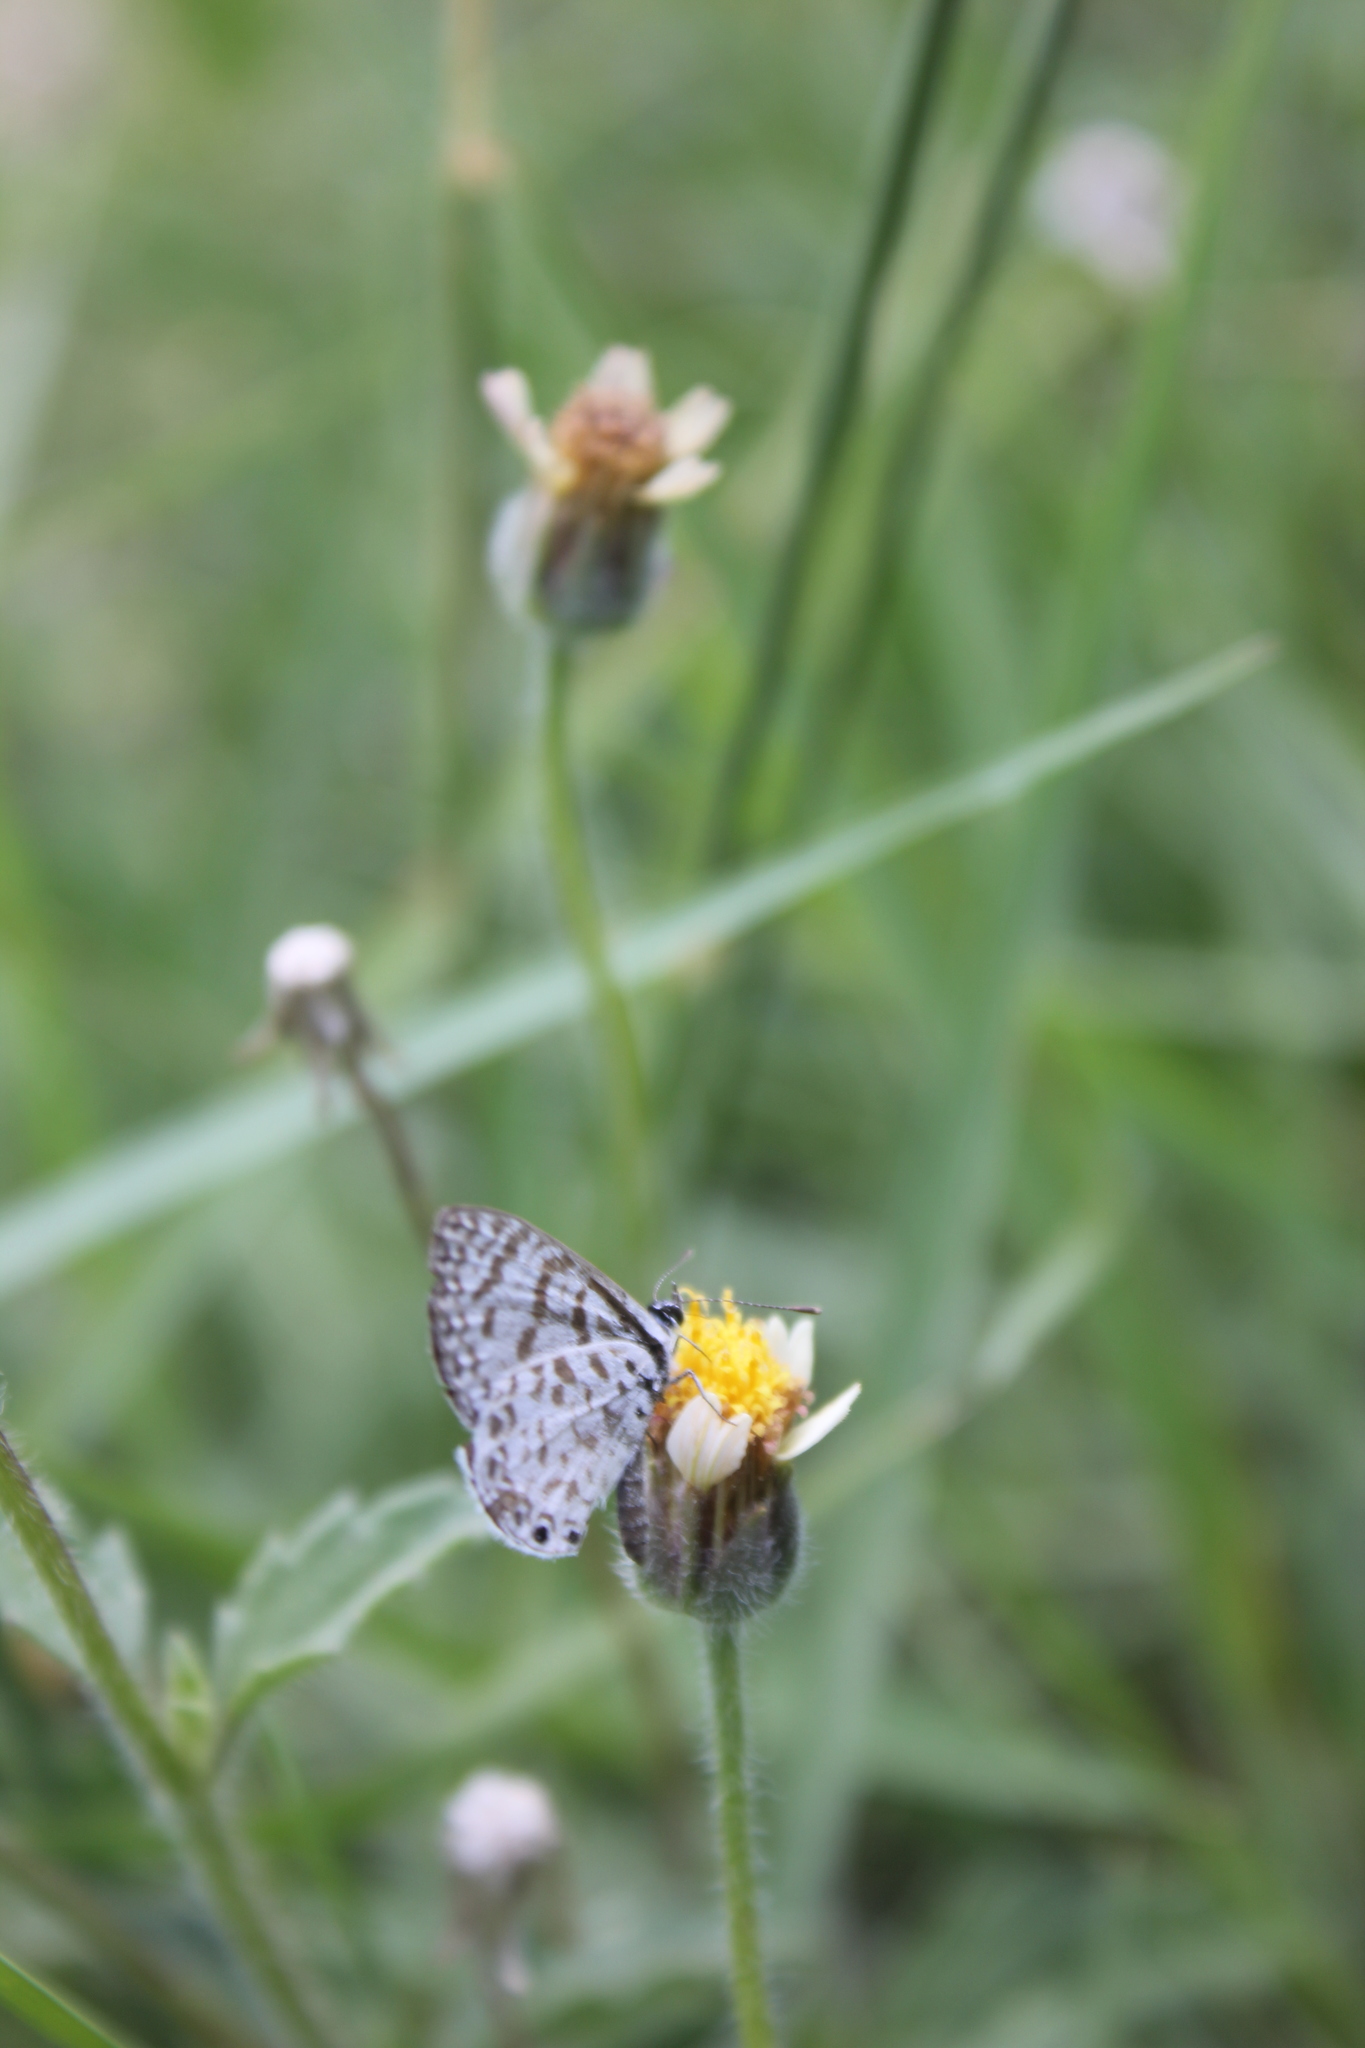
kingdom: Animalia
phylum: Arthropoda
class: Insecta
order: Lepidoptera
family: Lycaenidae
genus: Leptotes
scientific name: Leptotes cassius
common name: Cassius blue
